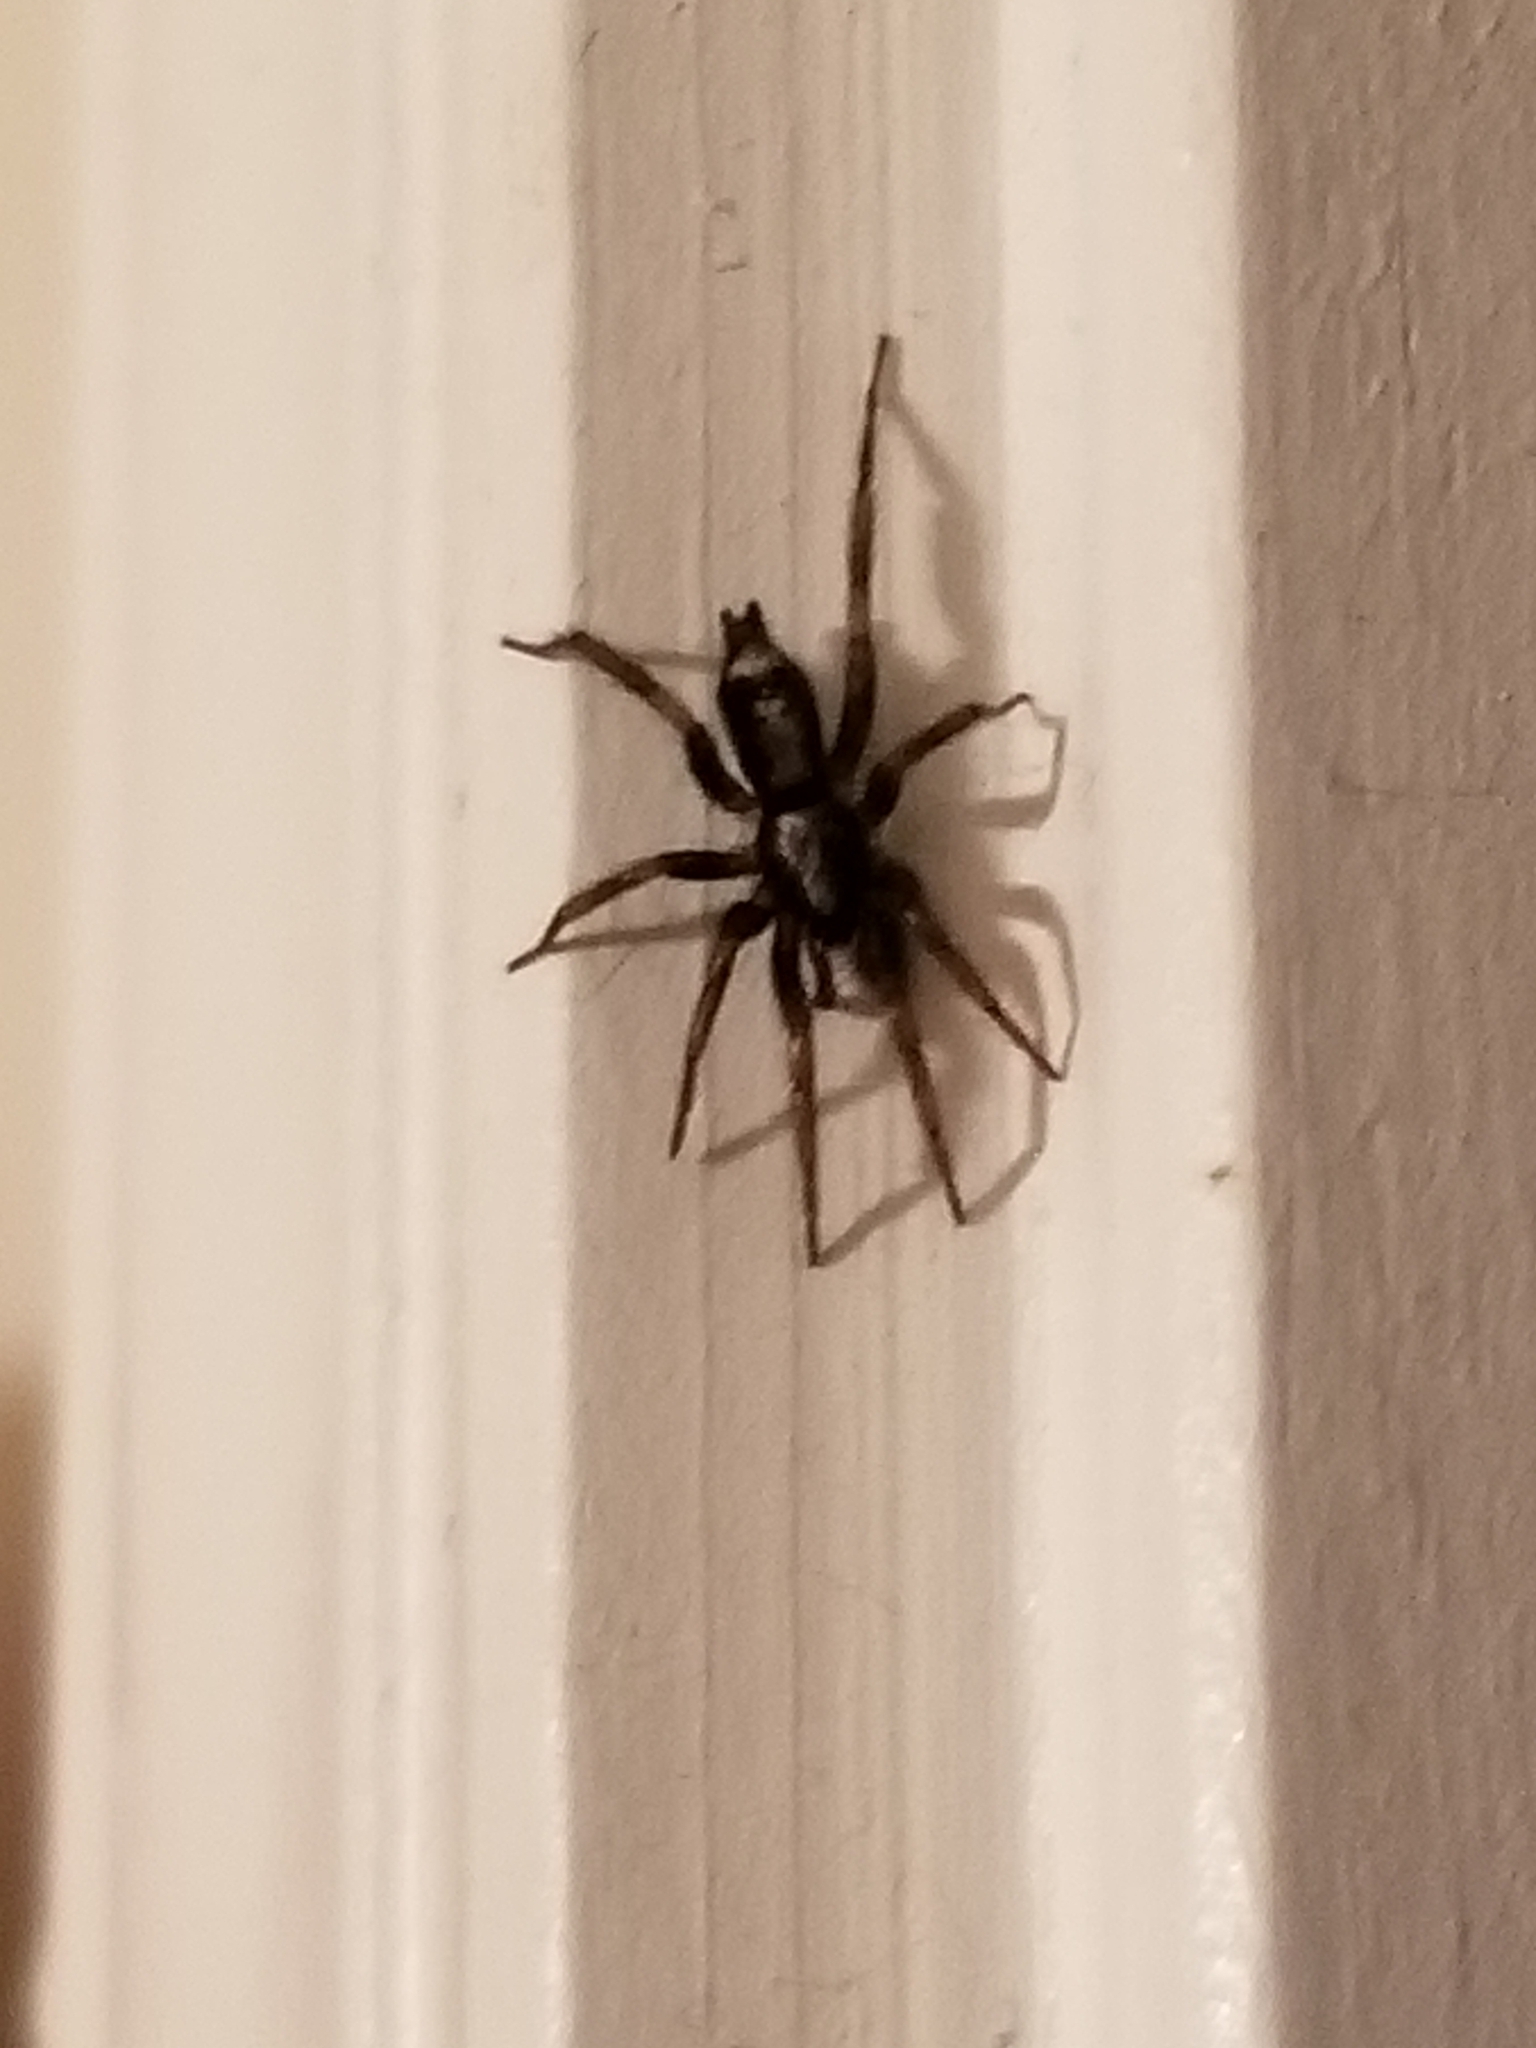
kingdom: Animalia
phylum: Arthropoda
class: Arachnida
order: Araneae
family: Gnaphosidae
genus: Herpyllus
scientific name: Herpyllus ecclesiasticus
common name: Eastern parson spider
